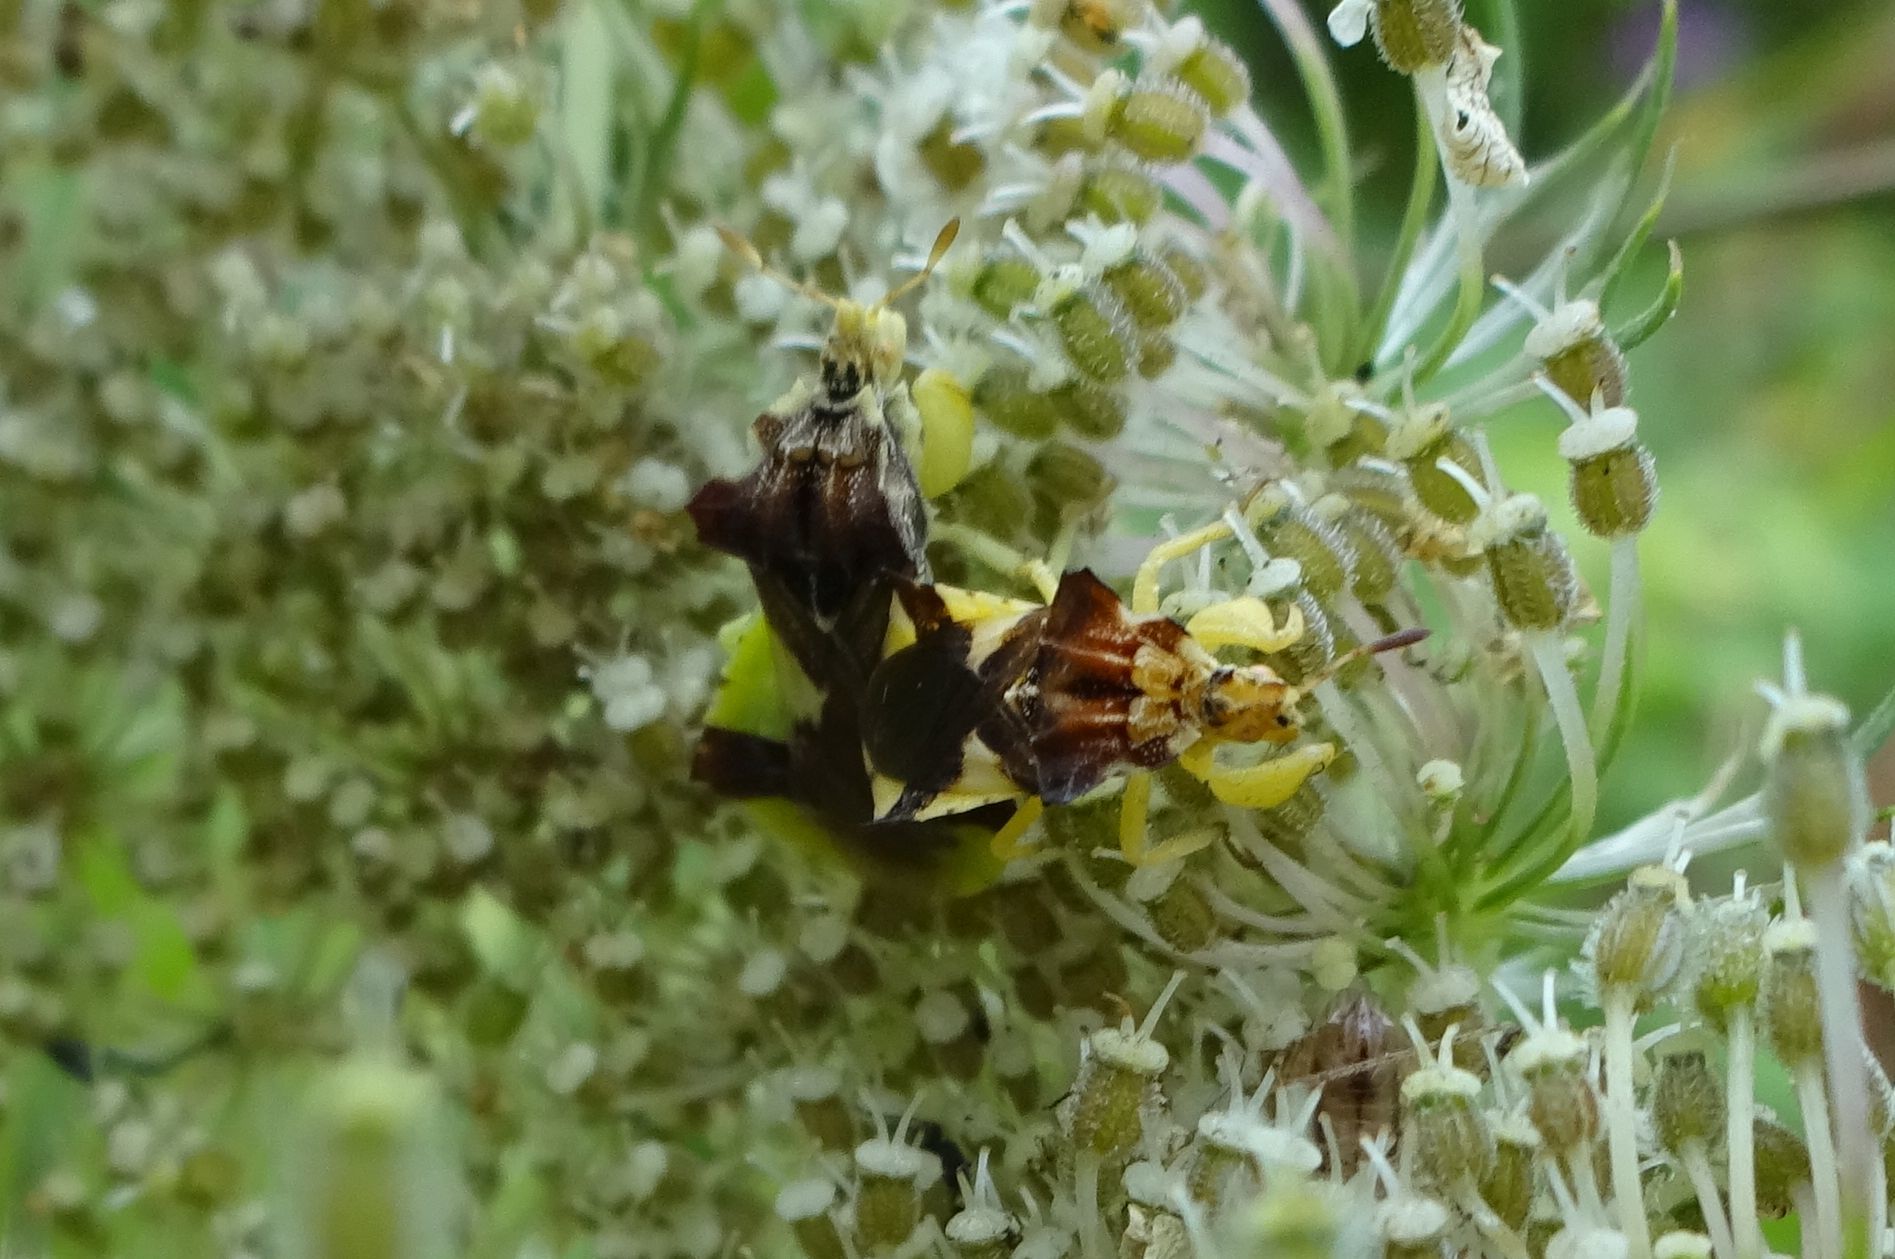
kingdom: Animalia
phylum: Arthropoda
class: Insecta
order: Hemiptera
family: Reduviidae
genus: Phymata
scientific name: Phymata americana
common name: Jagged ambush bug
